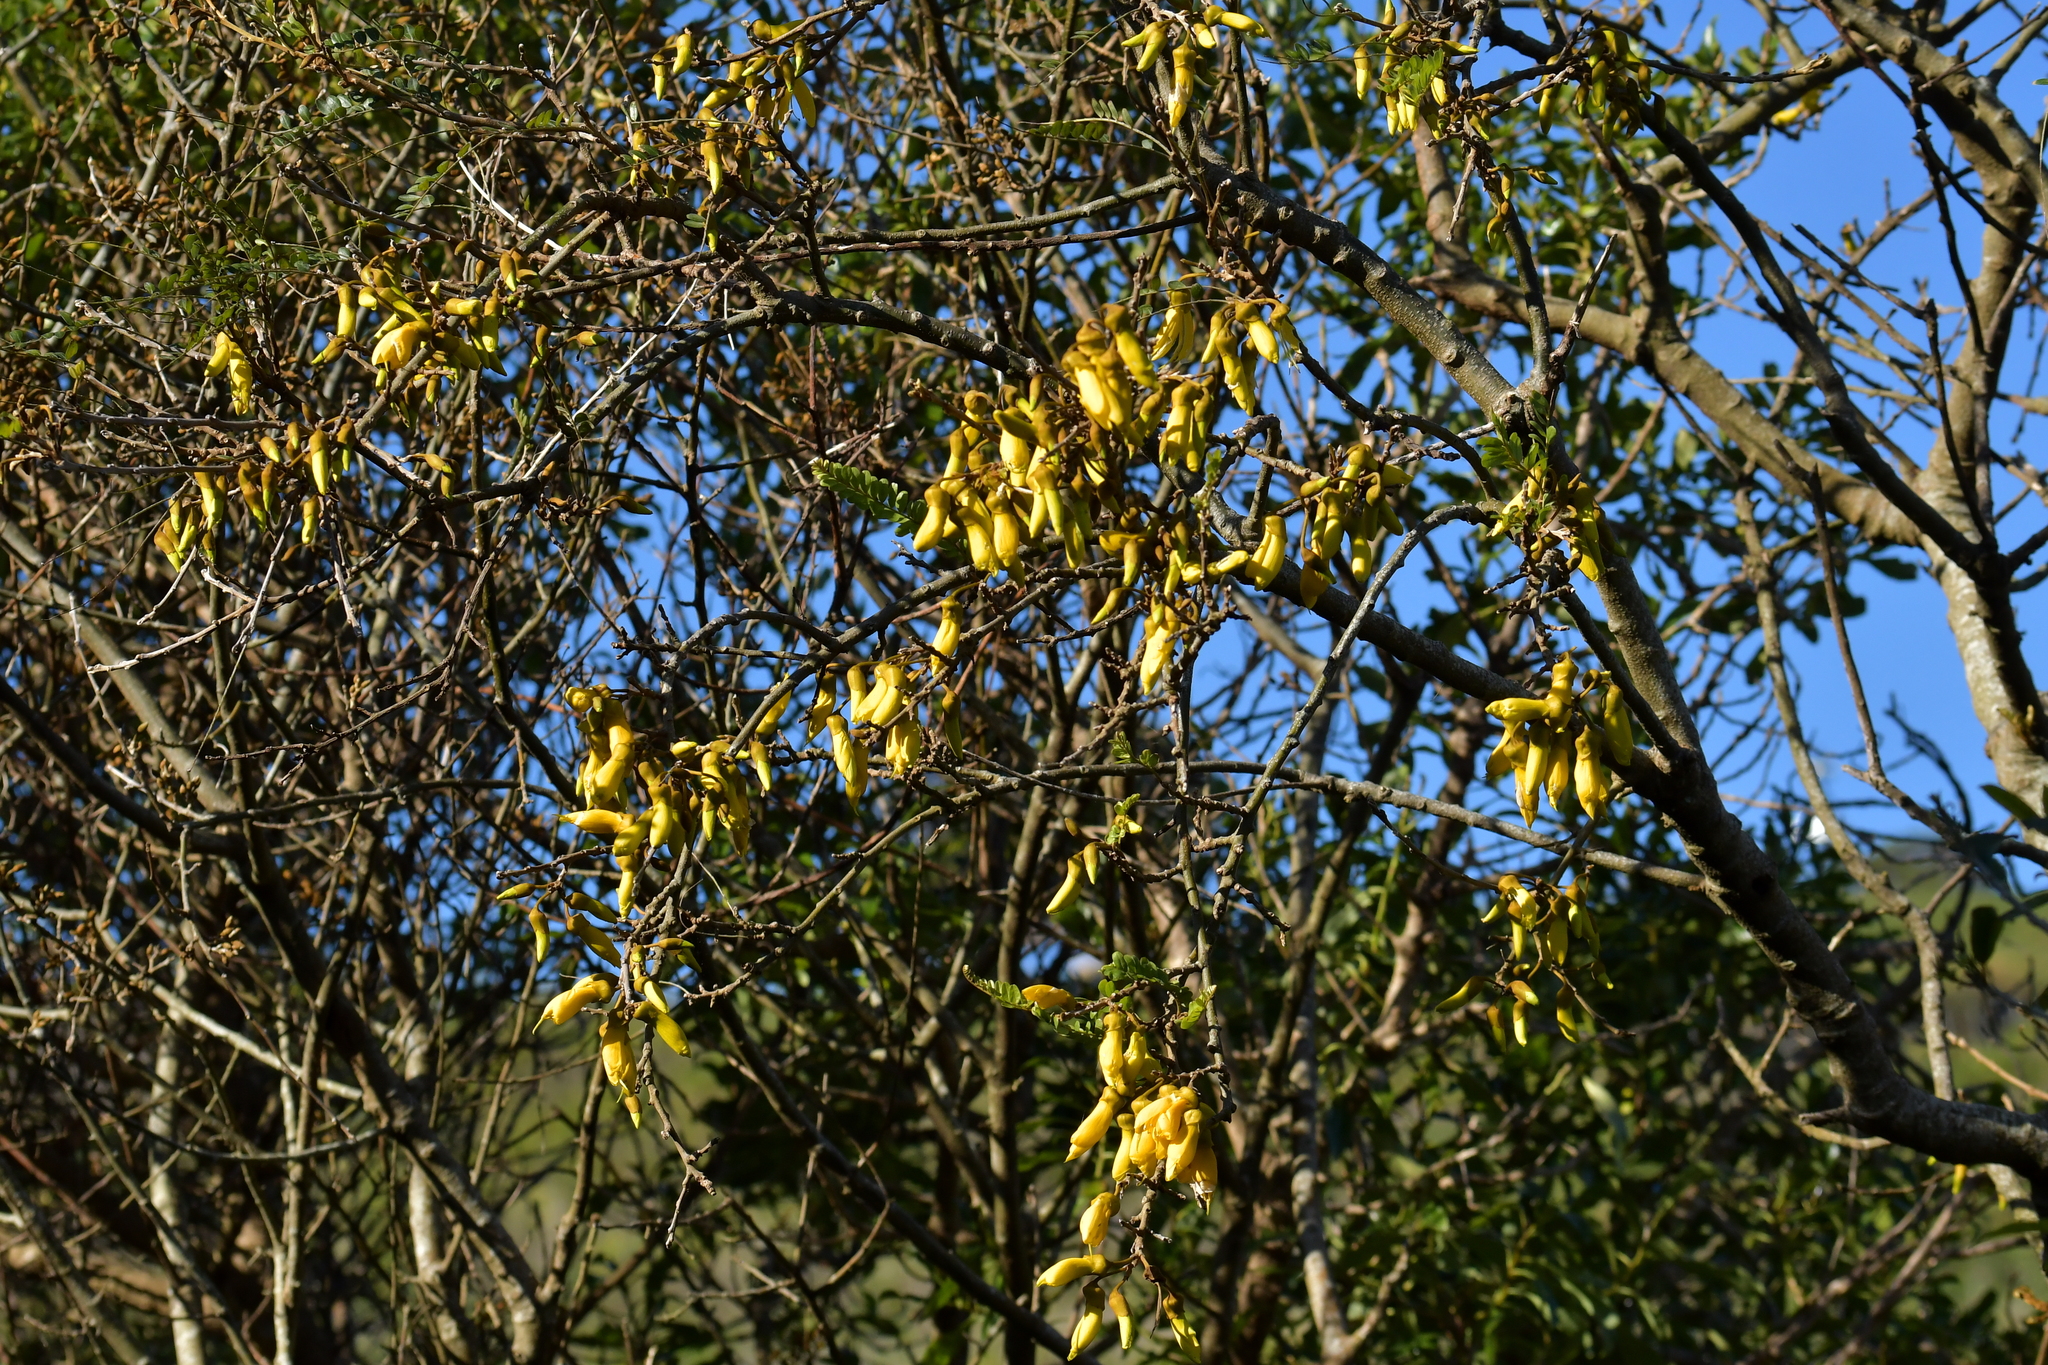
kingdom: Plantae
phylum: Tracheophyta
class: Magnoliopsida
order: Fabales
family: Fabaceae
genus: Sophora
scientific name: Sophora microphylla
